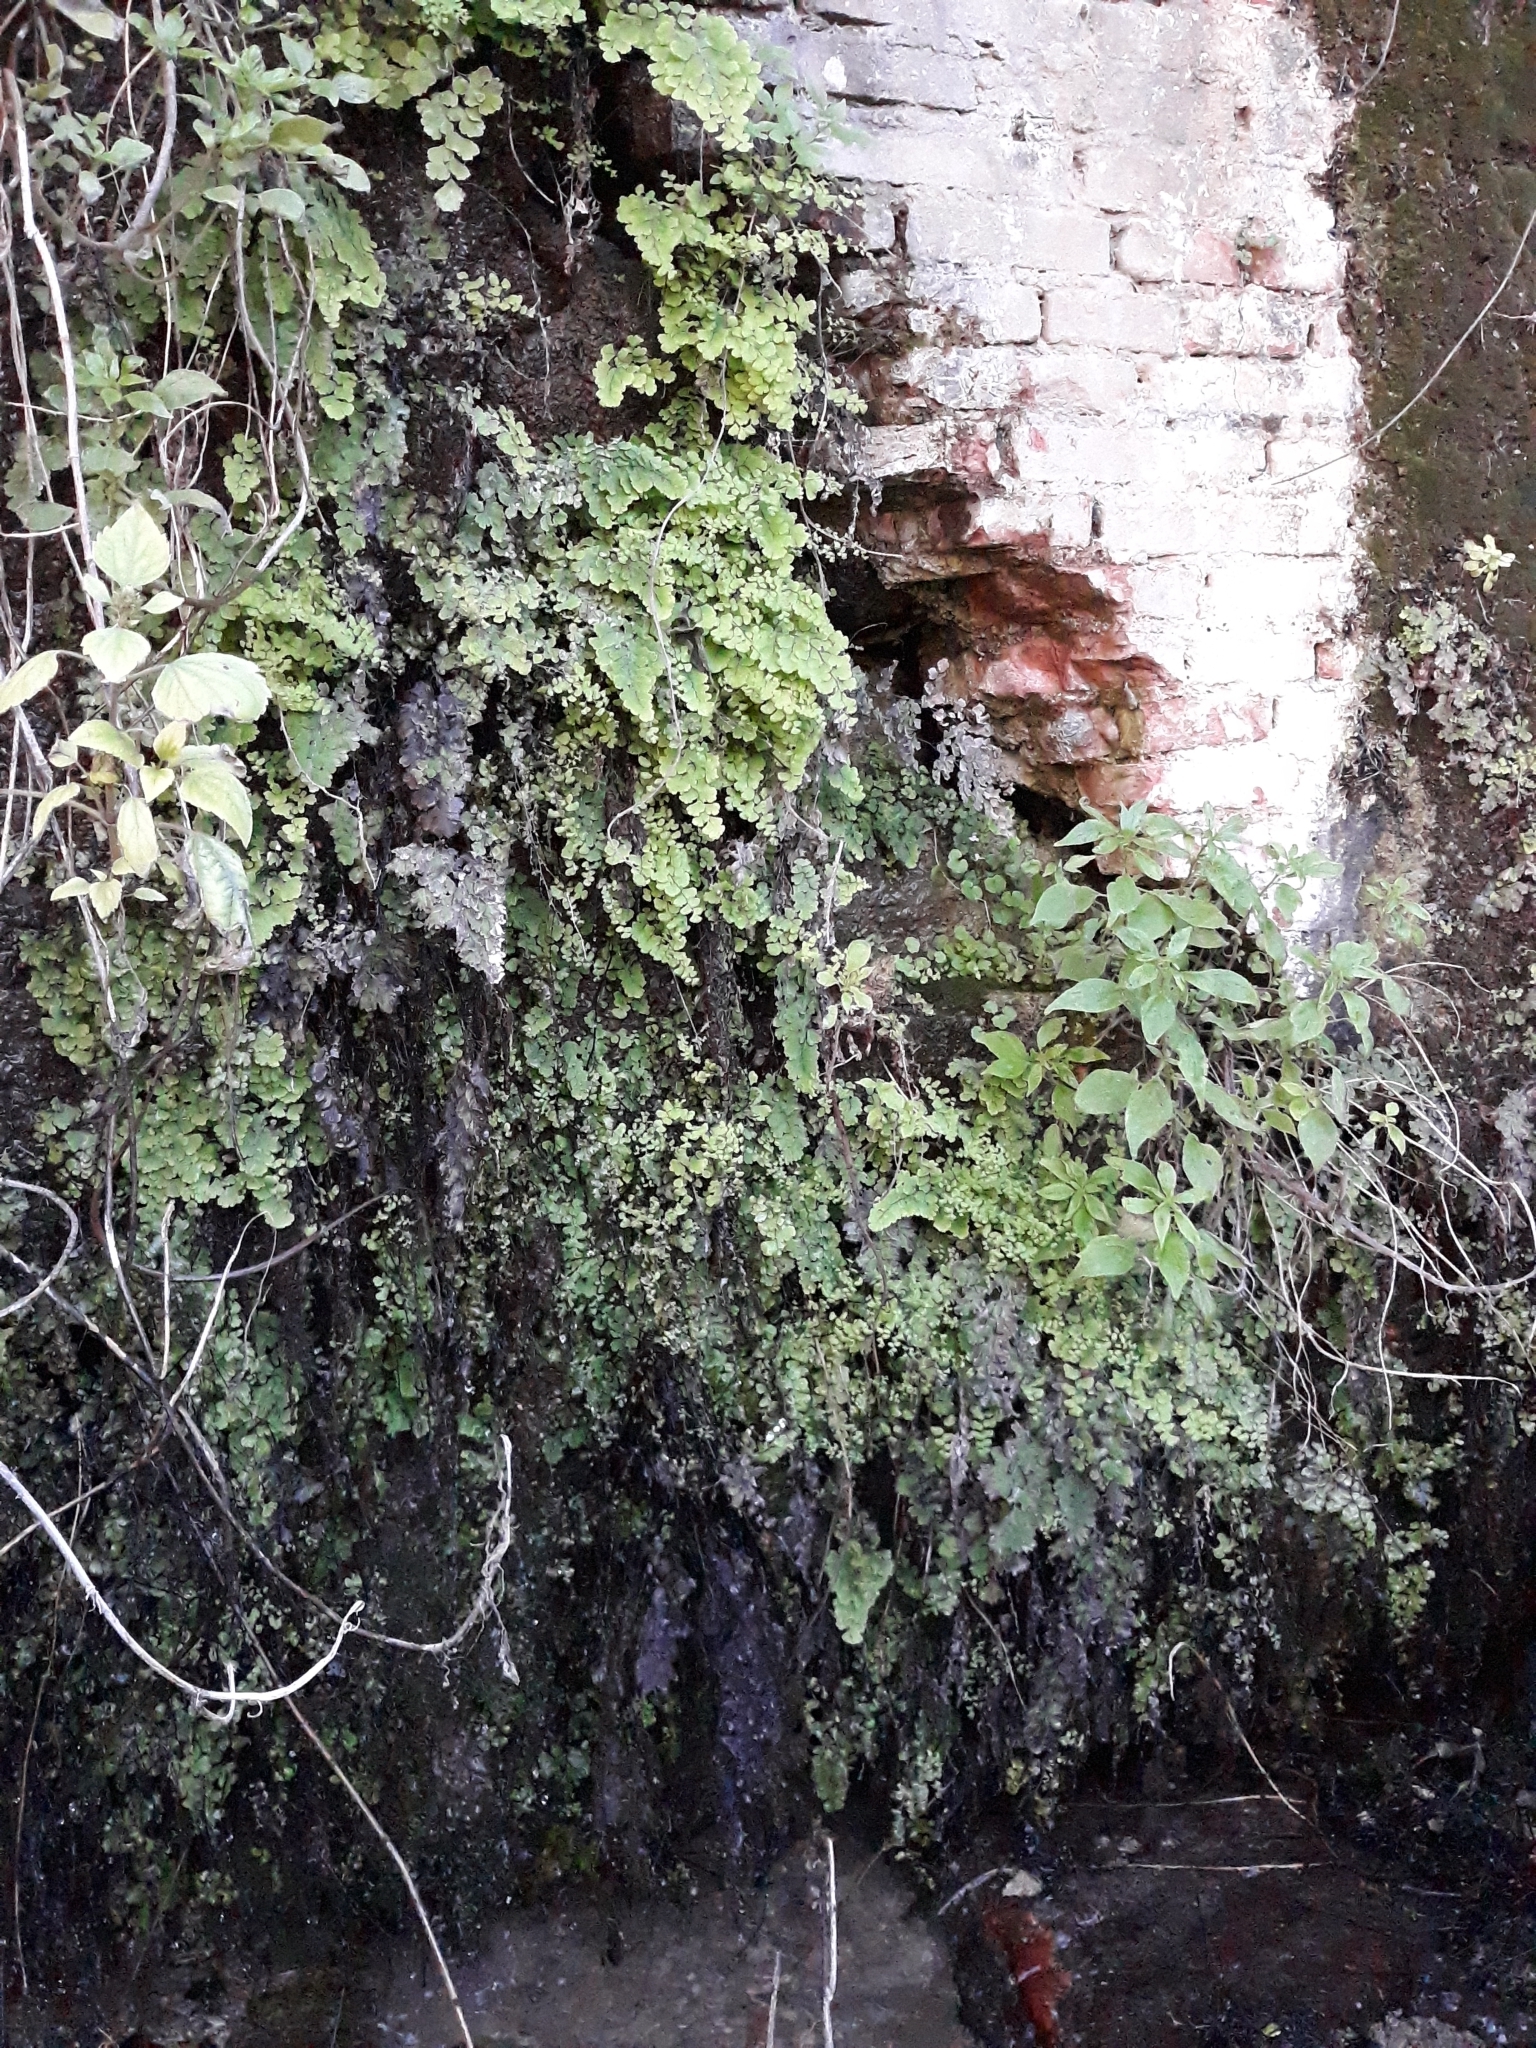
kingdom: Plantae
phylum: Tracheophyta
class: Polypodiopsida
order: Polypodiales
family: Pteridaceae
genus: Adiantum
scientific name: Adiantum capillus-veneris
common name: Maidenhair fern
